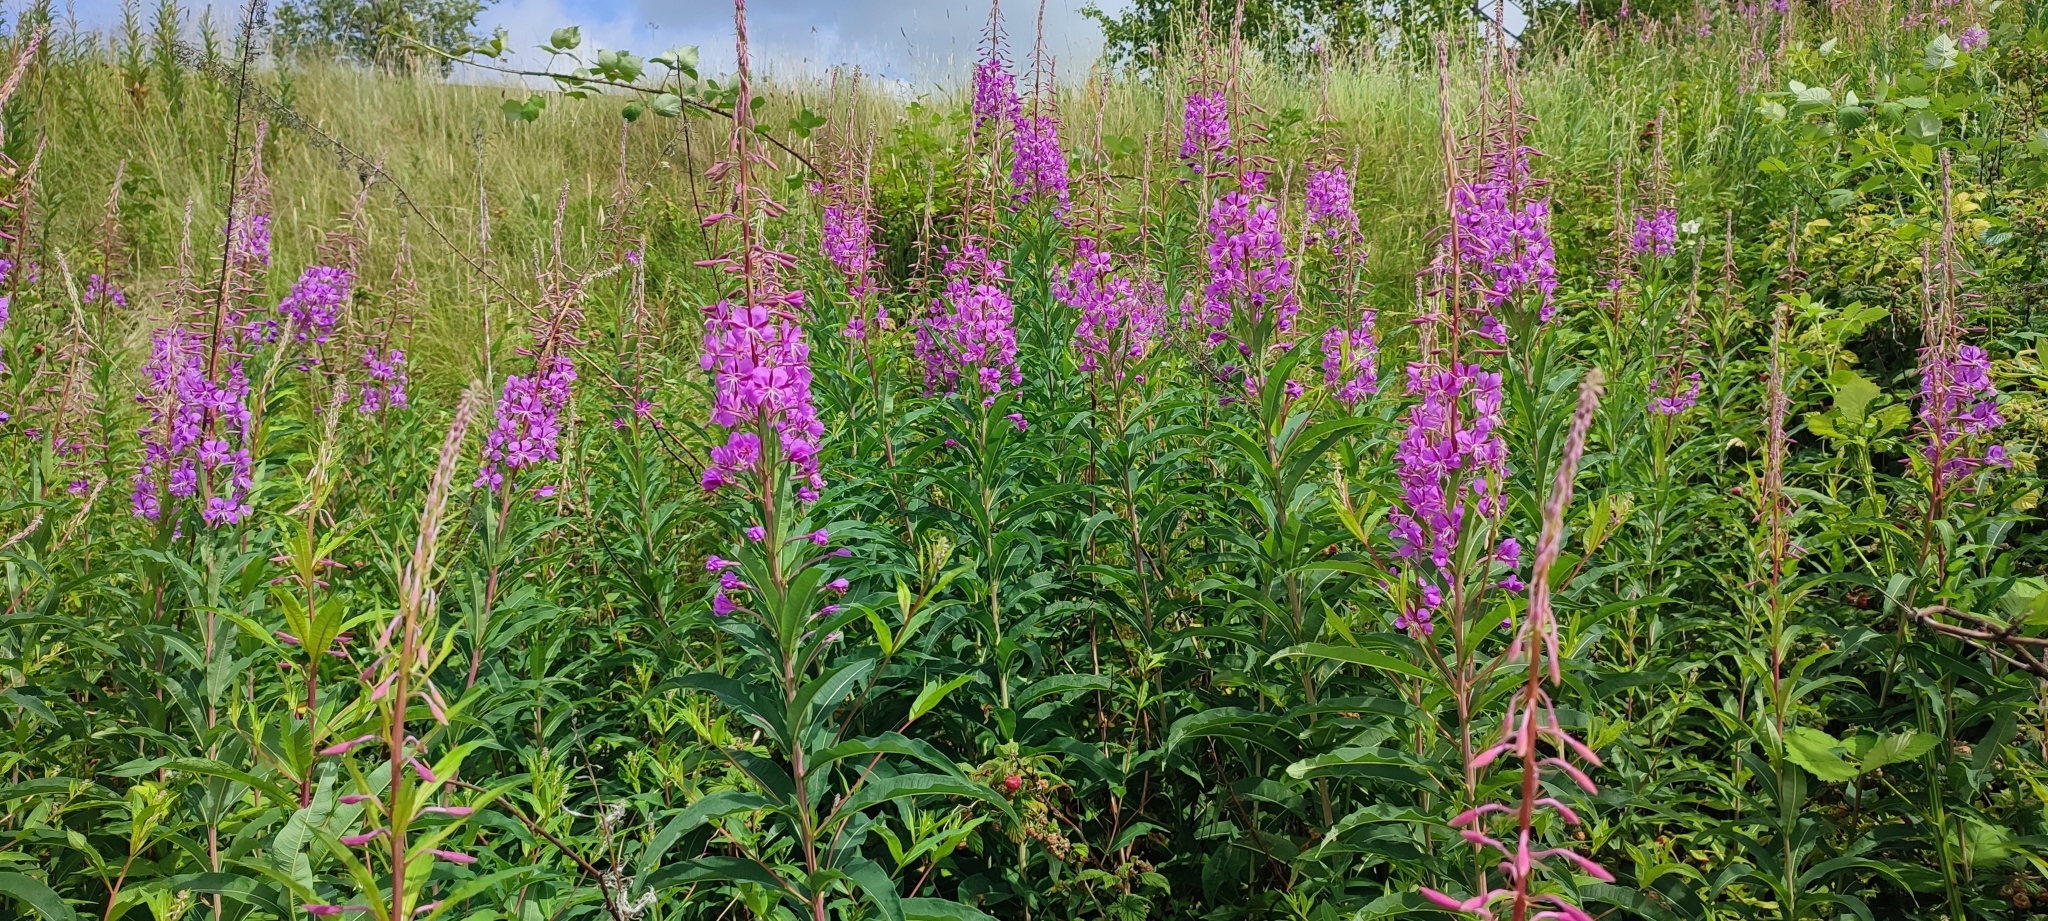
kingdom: Plantae
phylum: Tracheophyta
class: Magnoliopsida
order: Myrtales
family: Onagraceae
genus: Chamaenerion
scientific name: Chamaenerion angustifolium
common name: Fireweed
